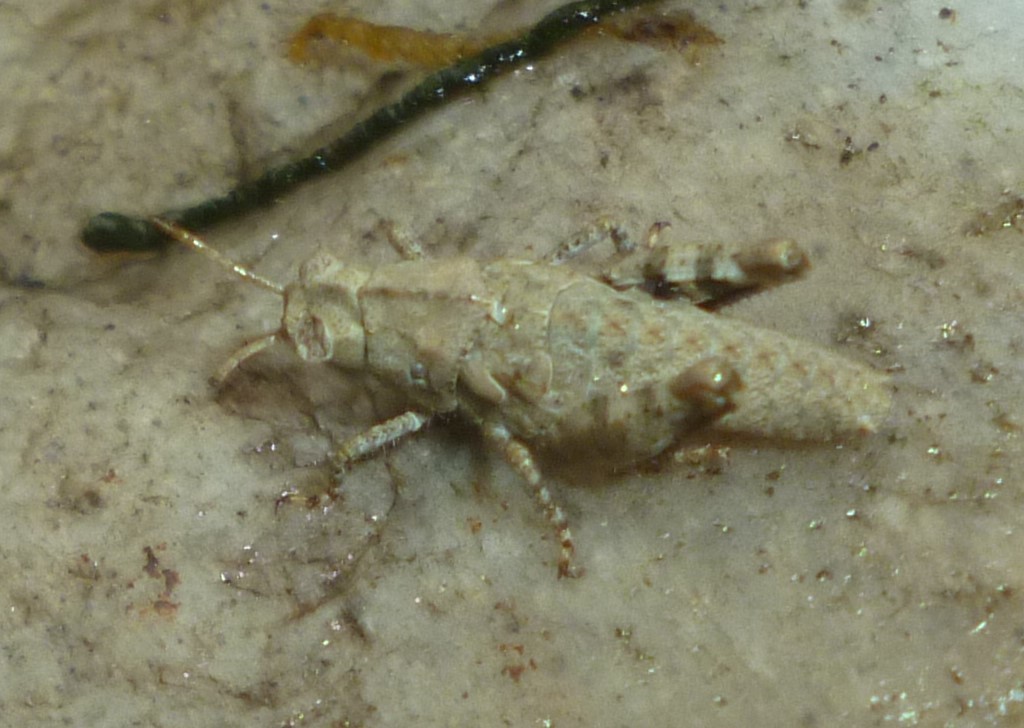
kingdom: Animalia
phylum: Arthropoda
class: Insecta
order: Orthoptera
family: Acrididae
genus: Dissosteira
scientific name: Dissosteira carolina
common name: Carolina grasshopper
